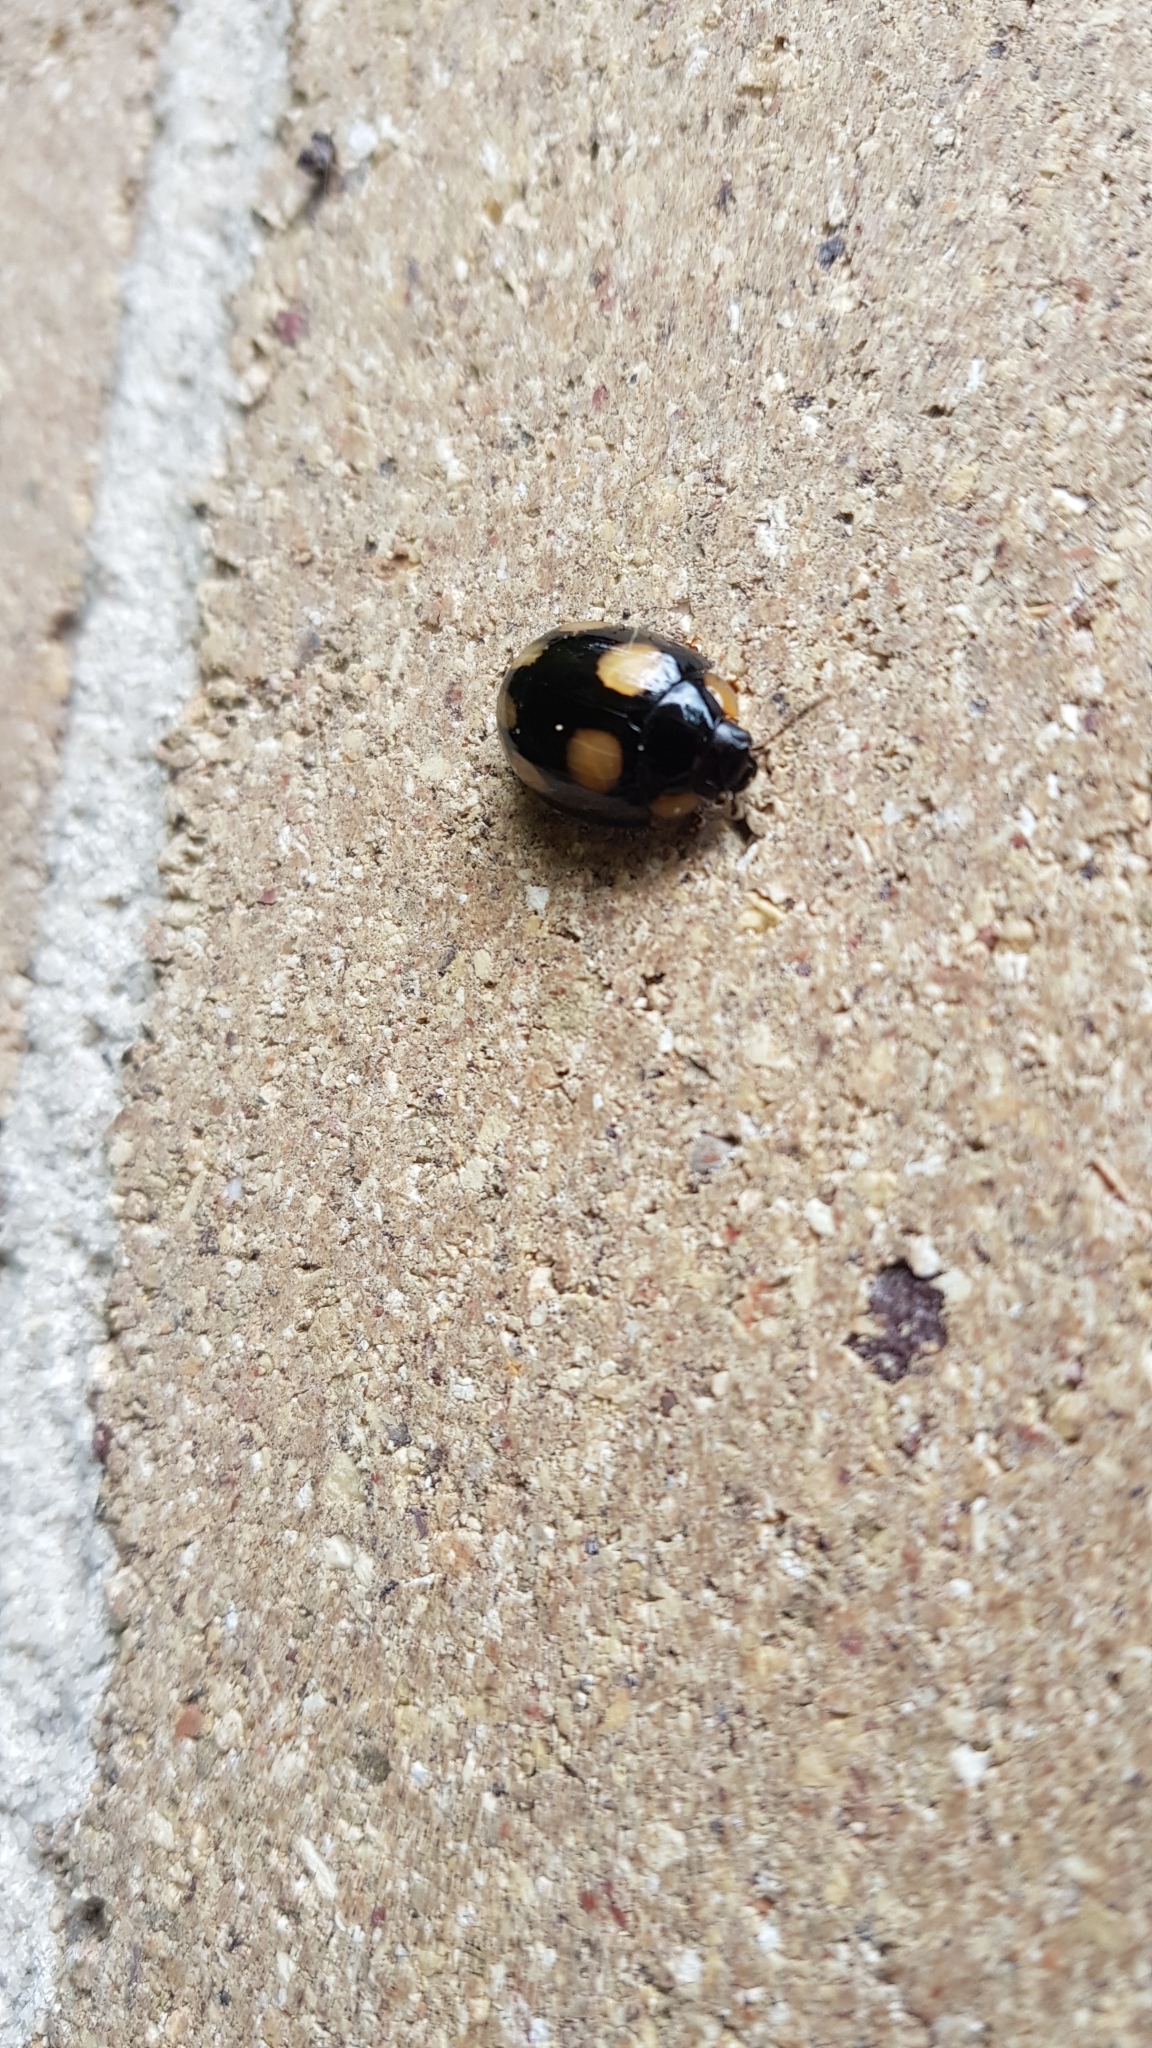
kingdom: Animalia
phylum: Arthropoda
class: Insecta
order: Coleoptera
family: Chrysomelidae
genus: Paropsisterna
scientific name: Paropsisterna
